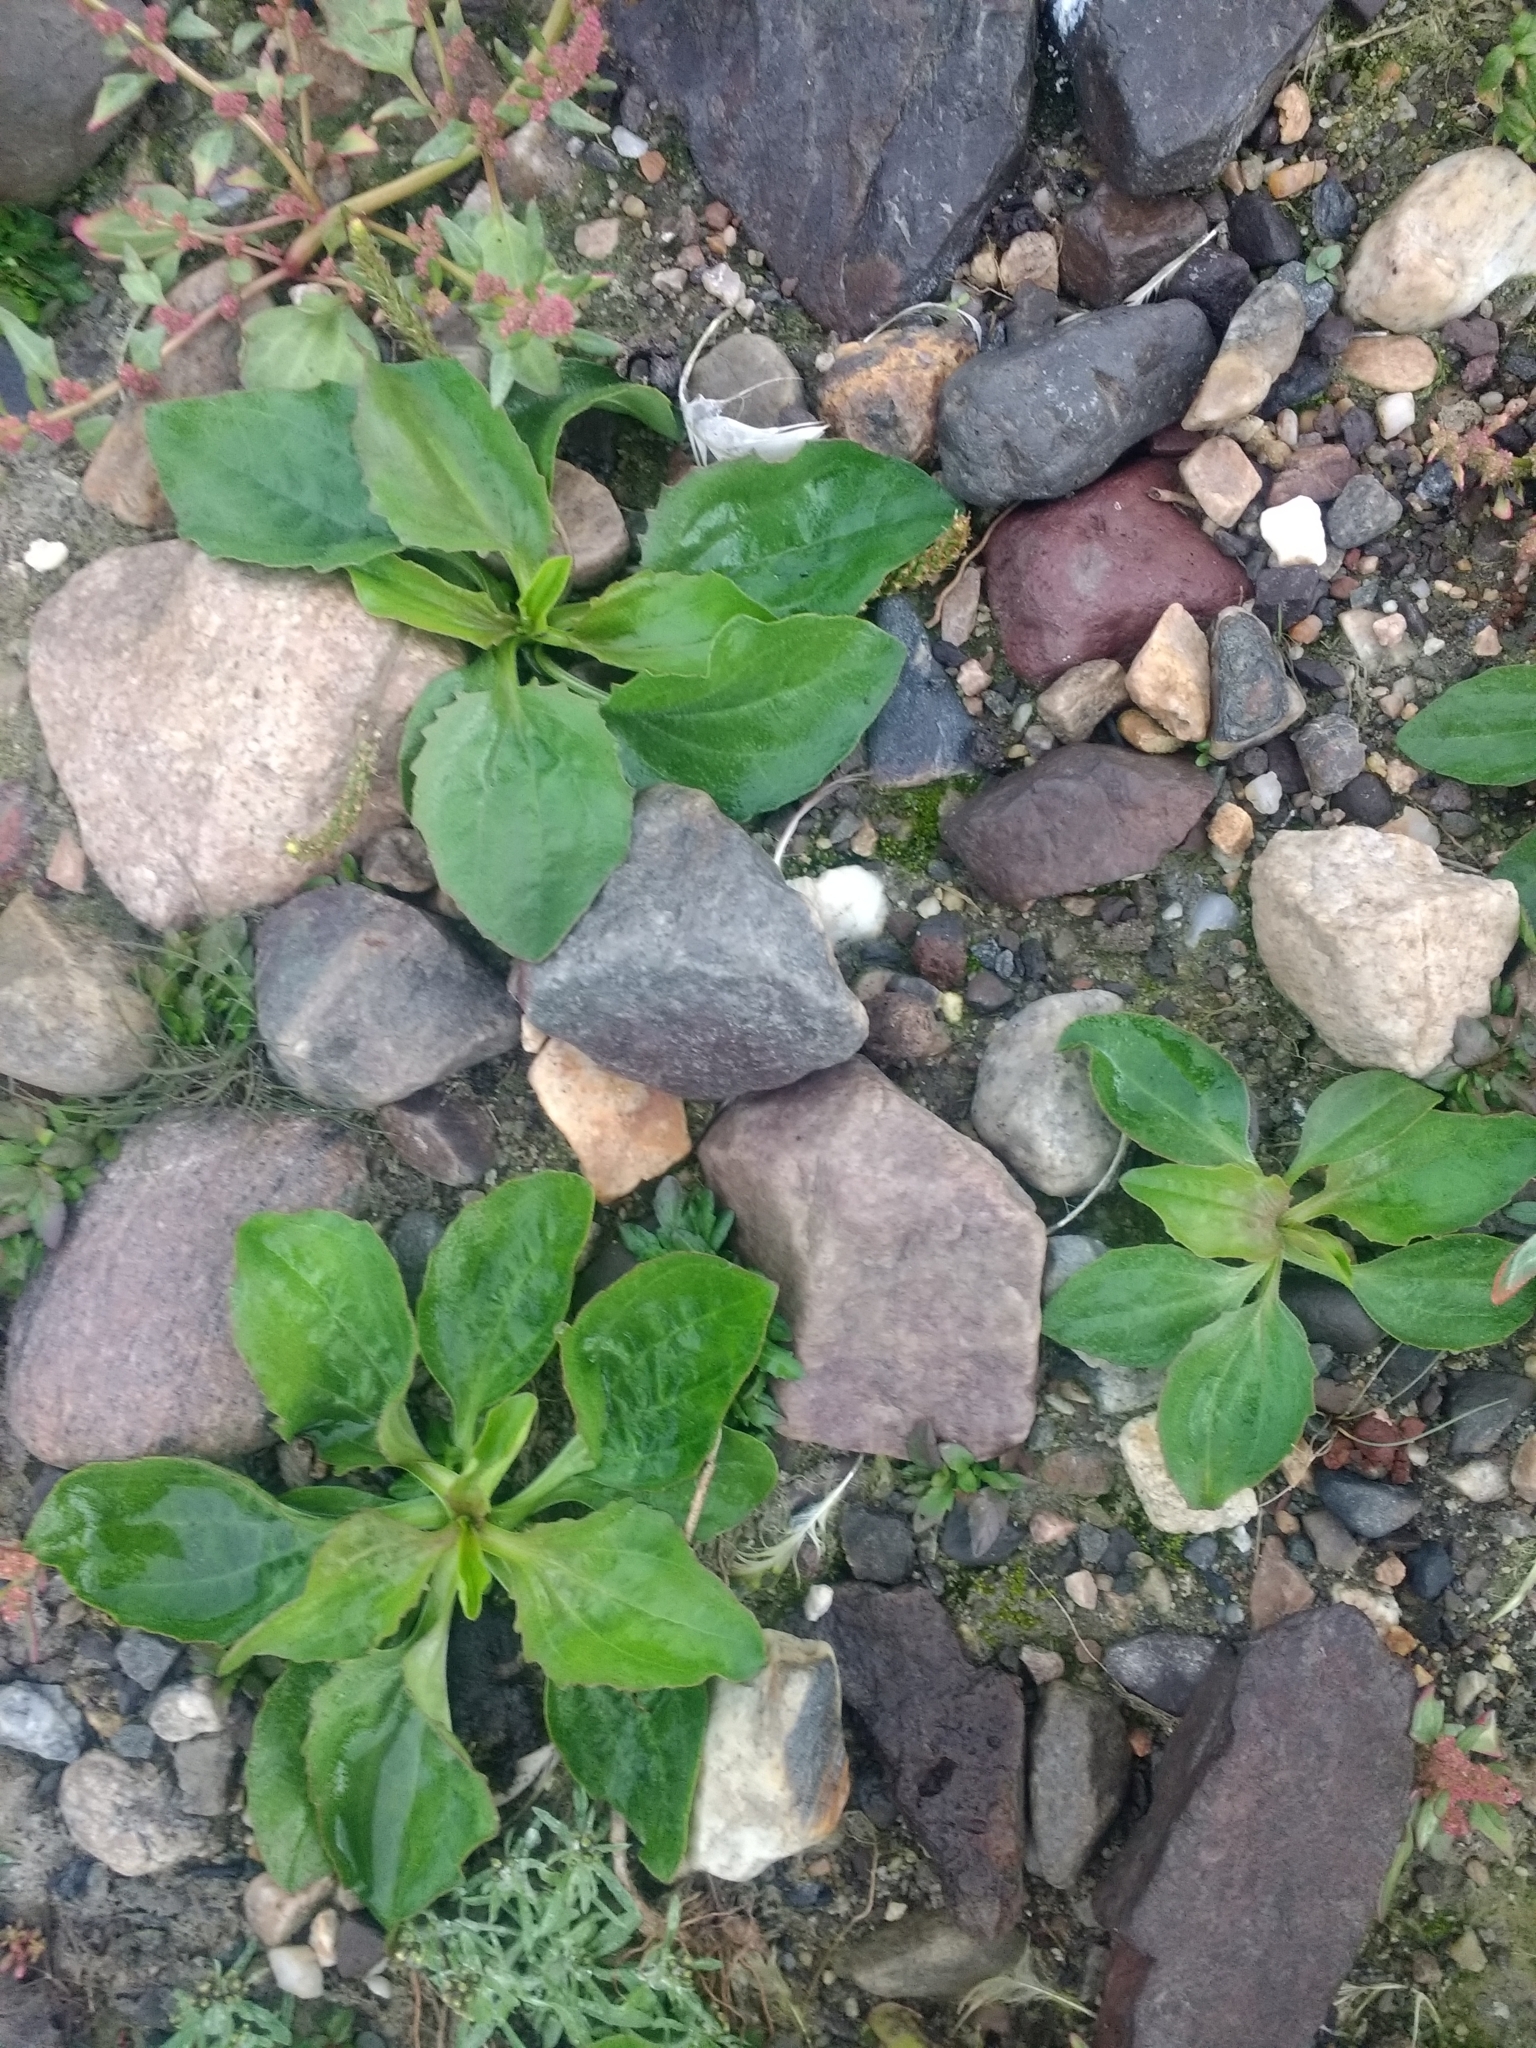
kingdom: Plantae
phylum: Tracheophyta
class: Magnoliopsida
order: Lamiales
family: Plantaginaceae
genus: Plantago
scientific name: Plantago major
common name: Common plantain
